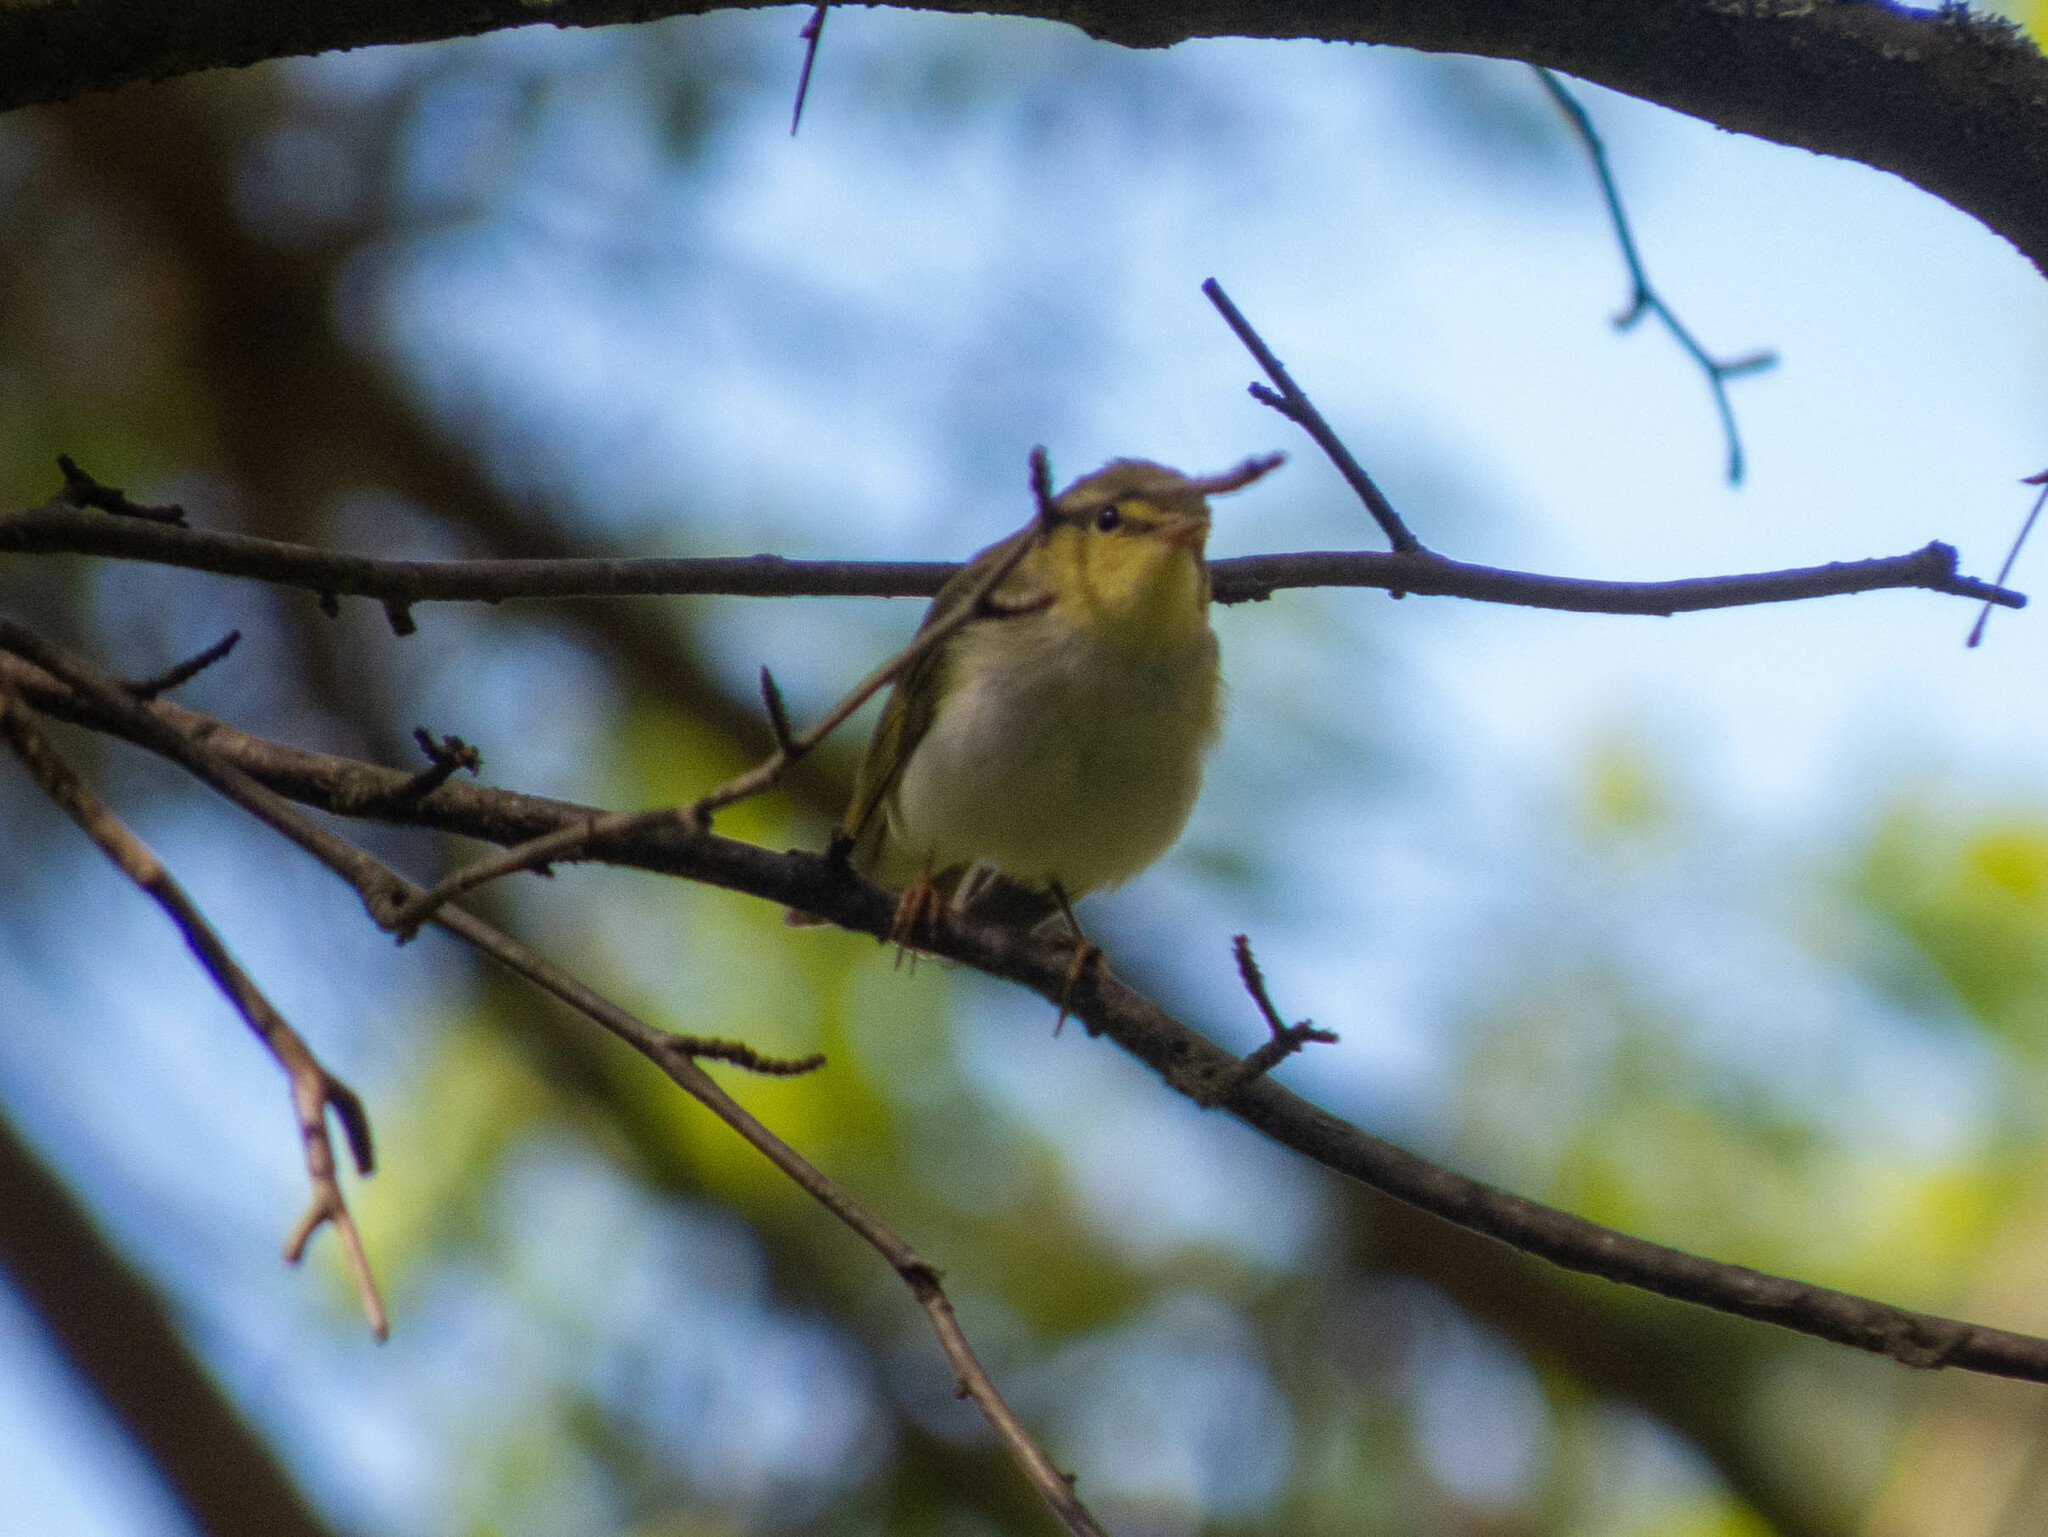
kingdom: Animalia
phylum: Chordata
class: Aves
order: Passeriformes
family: Phylloscopidae
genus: Phylloscopus
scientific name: Phylloscopus sibillatrix
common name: Wood warbler
